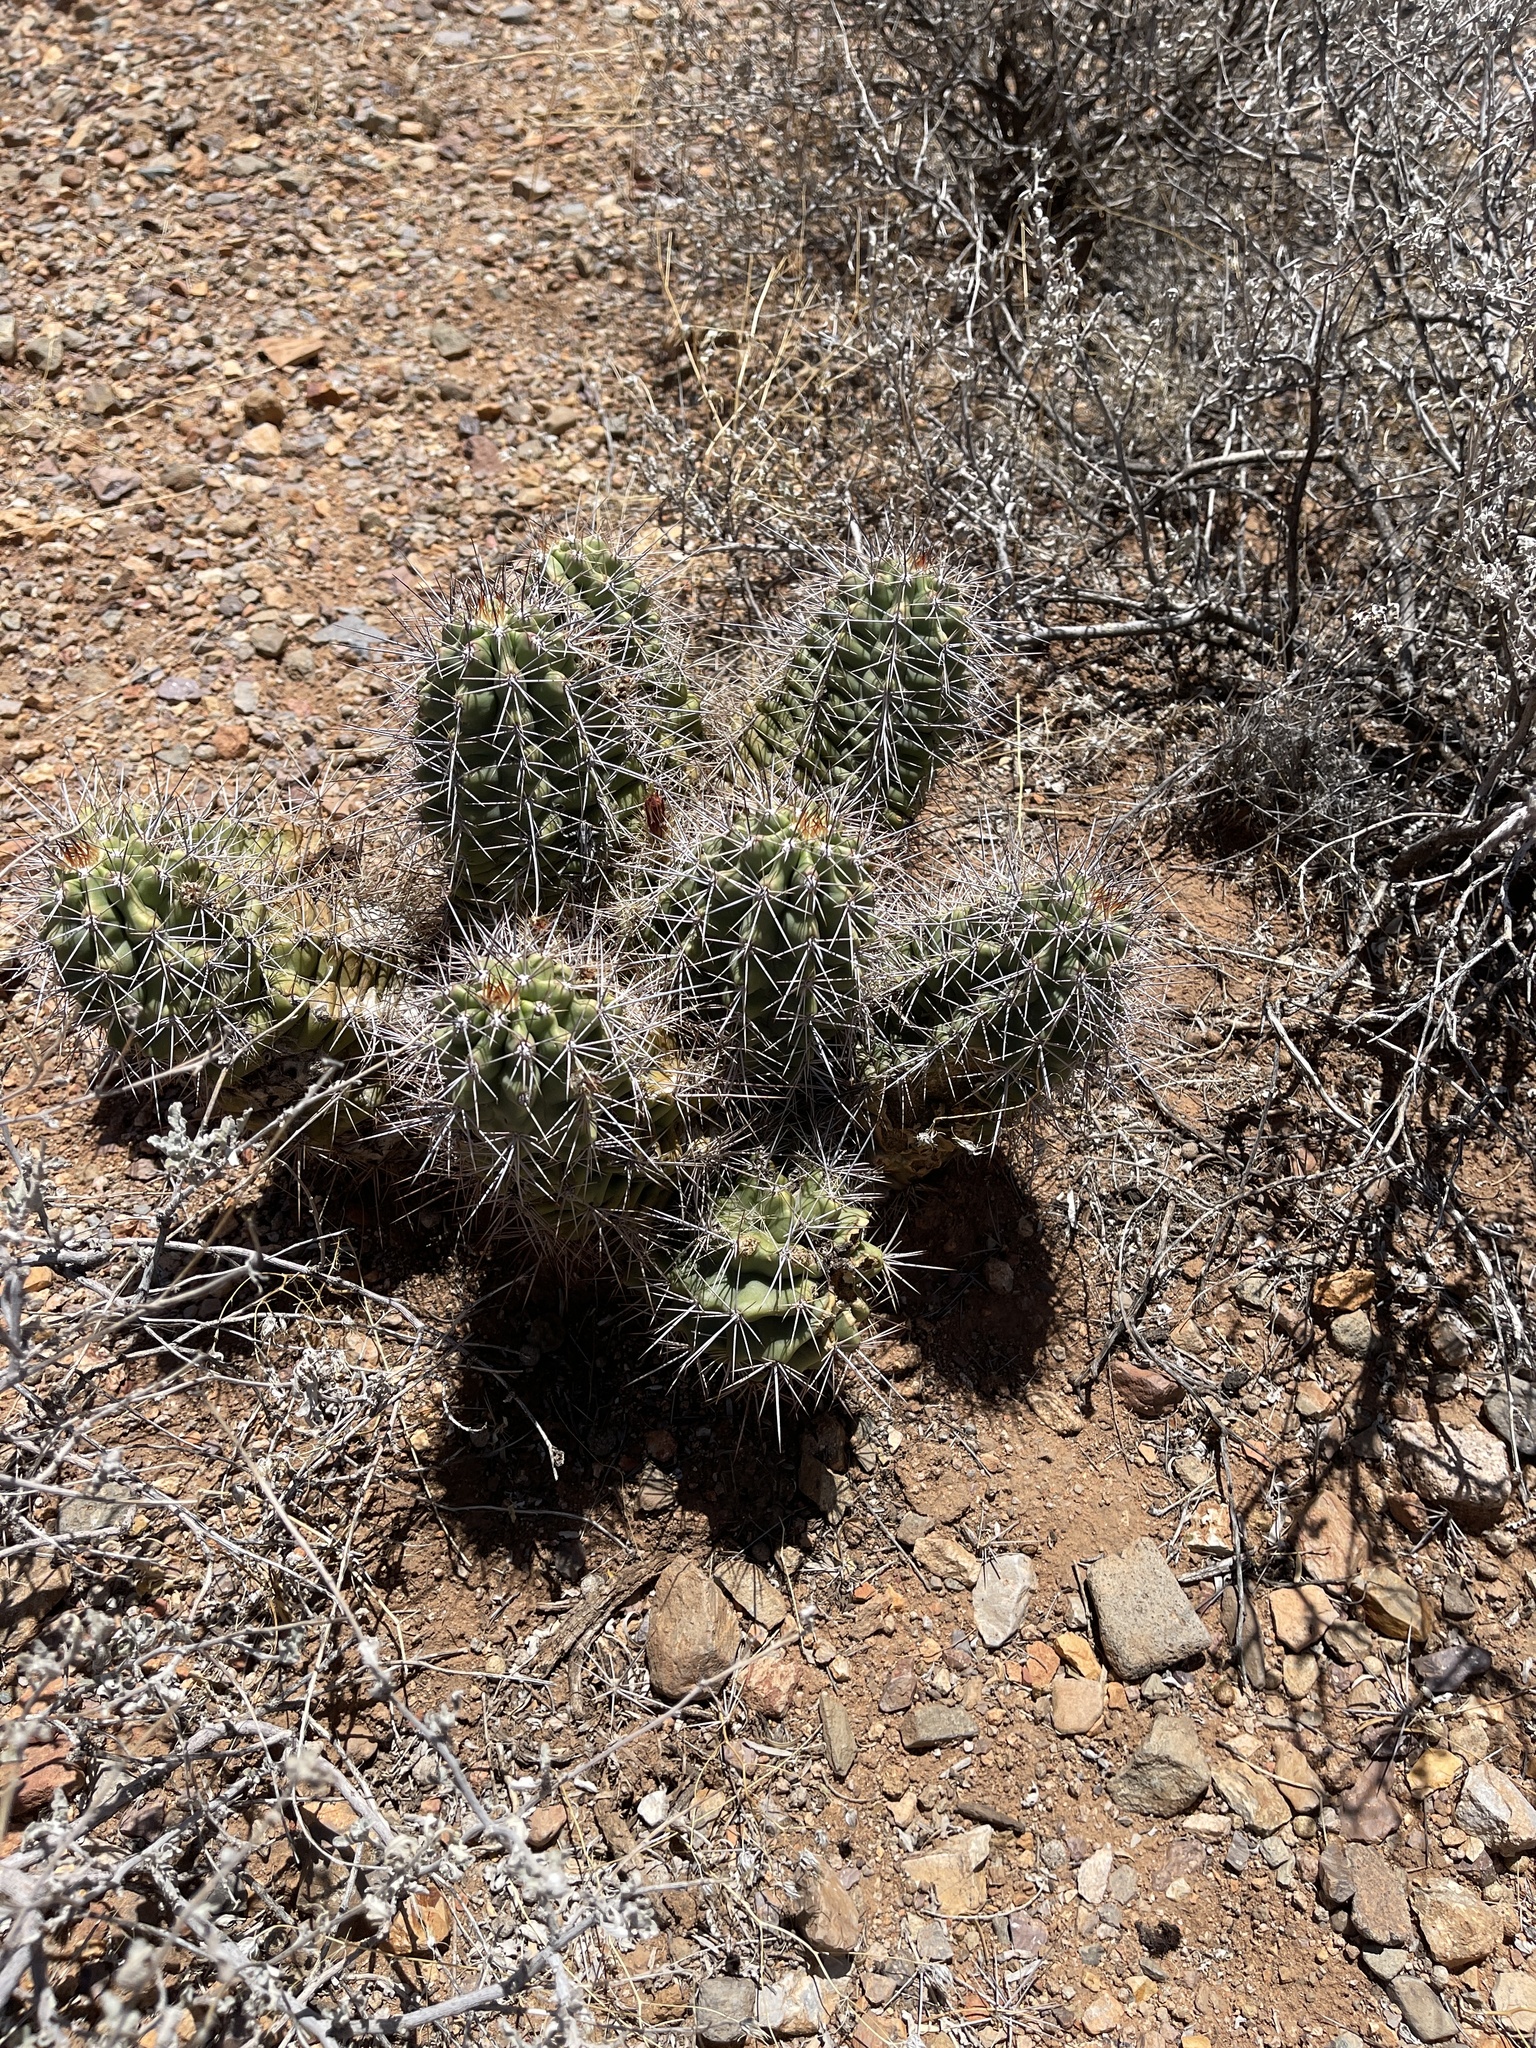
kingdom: Plantae
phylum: Tracheophyta
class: Magnoliopsida
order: Caryophyllales
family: Cactaceae
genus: Echinocereus
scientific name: Echinocereus coccineus
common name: Scarlet hedgehog cactus
